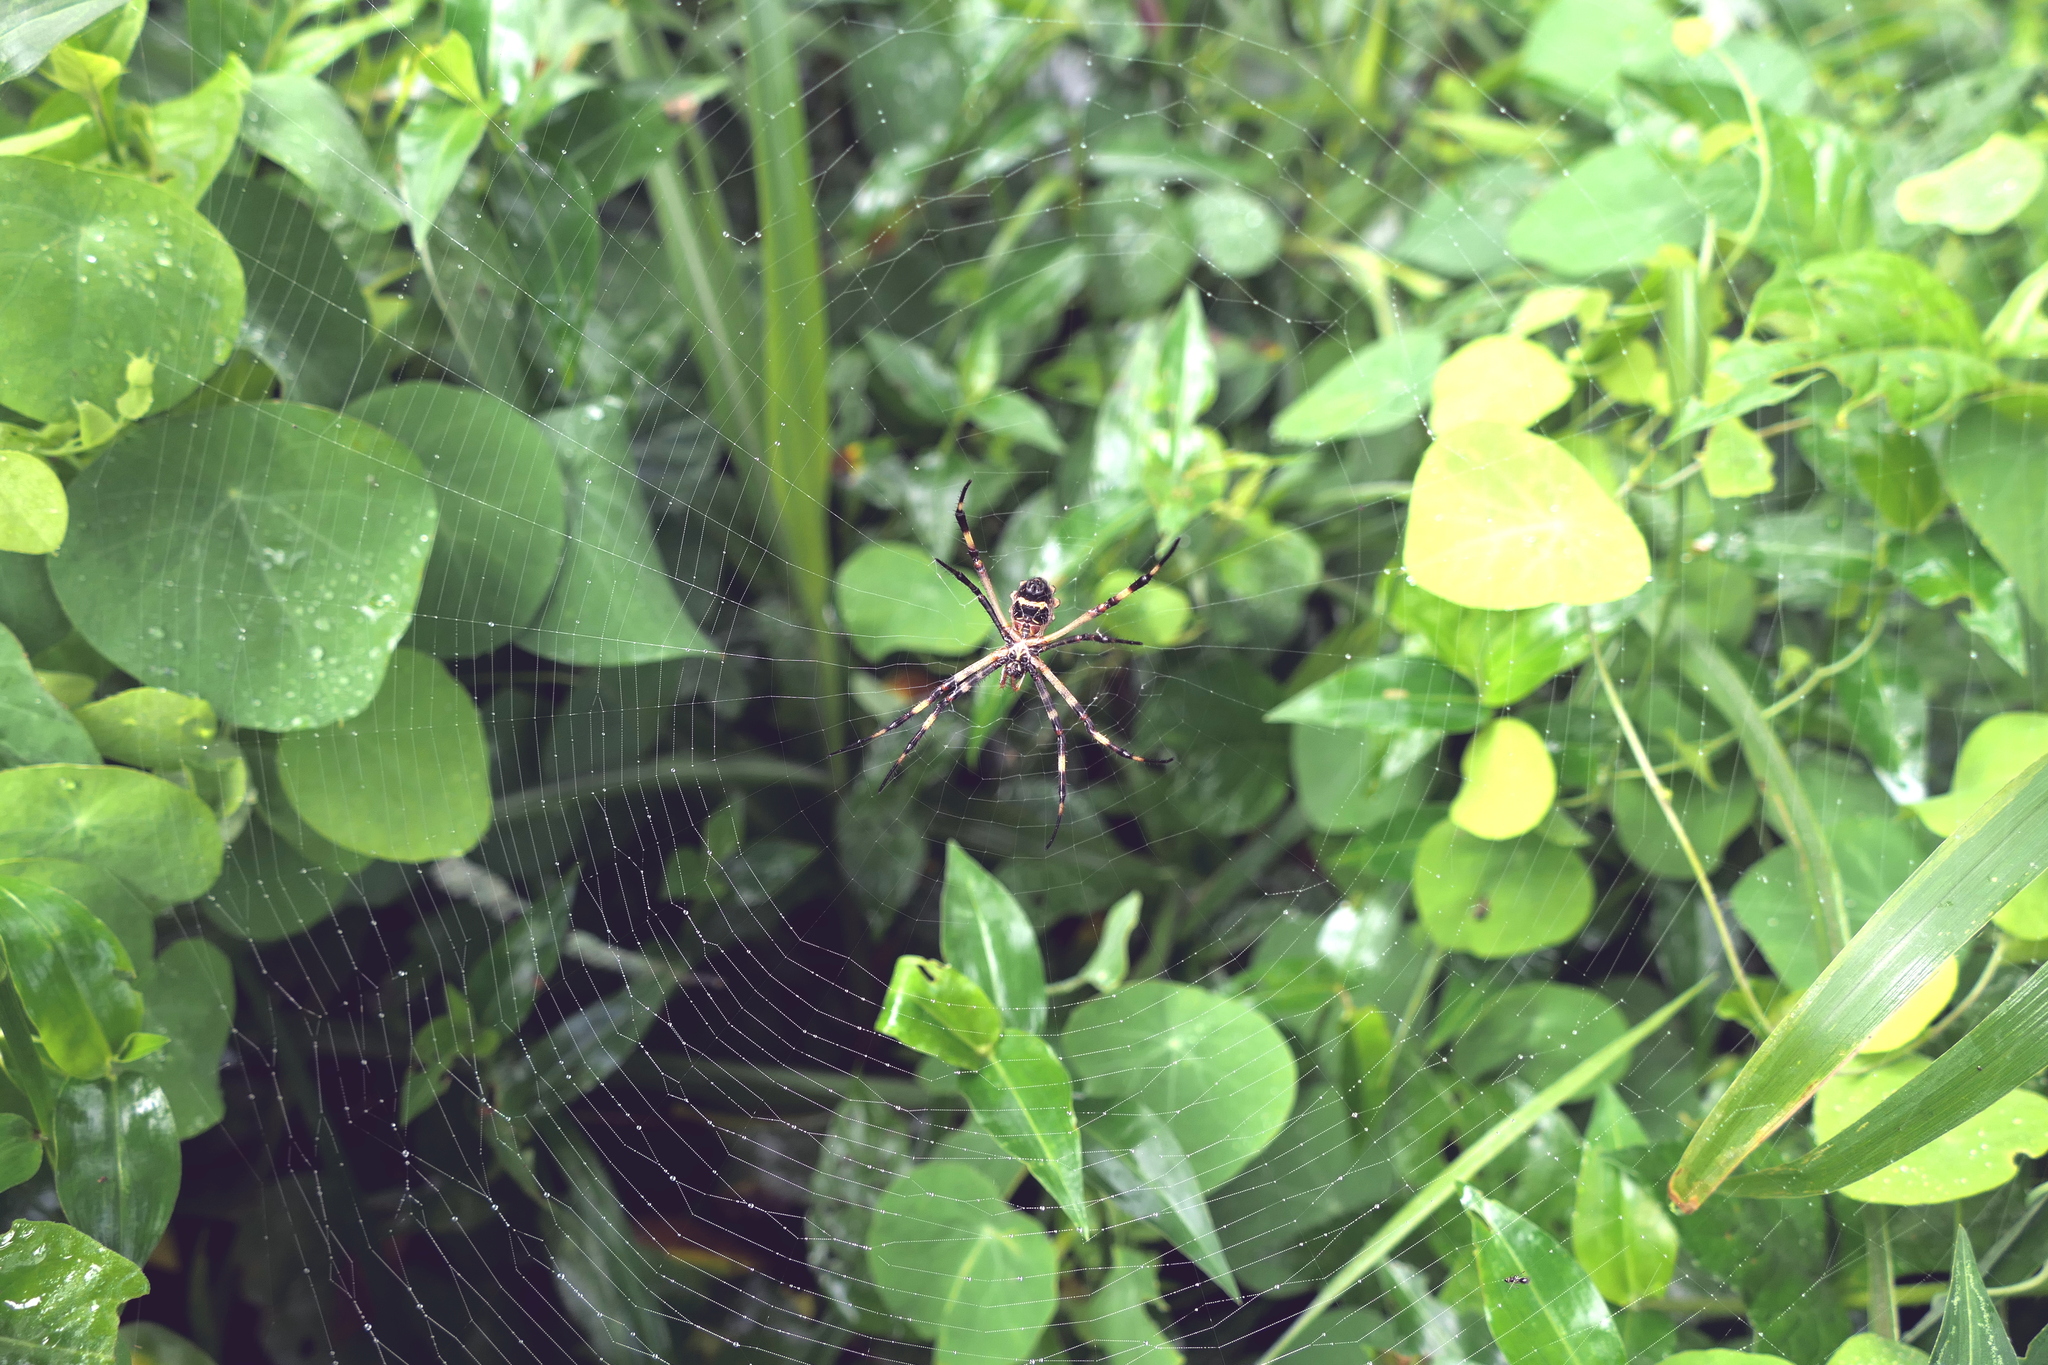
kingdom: Animalia
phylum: Arthropoda
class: Arachnida
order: Araneae
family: Araneidae
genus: Argiope
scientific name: Argiope argentata
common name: Orb weavers
